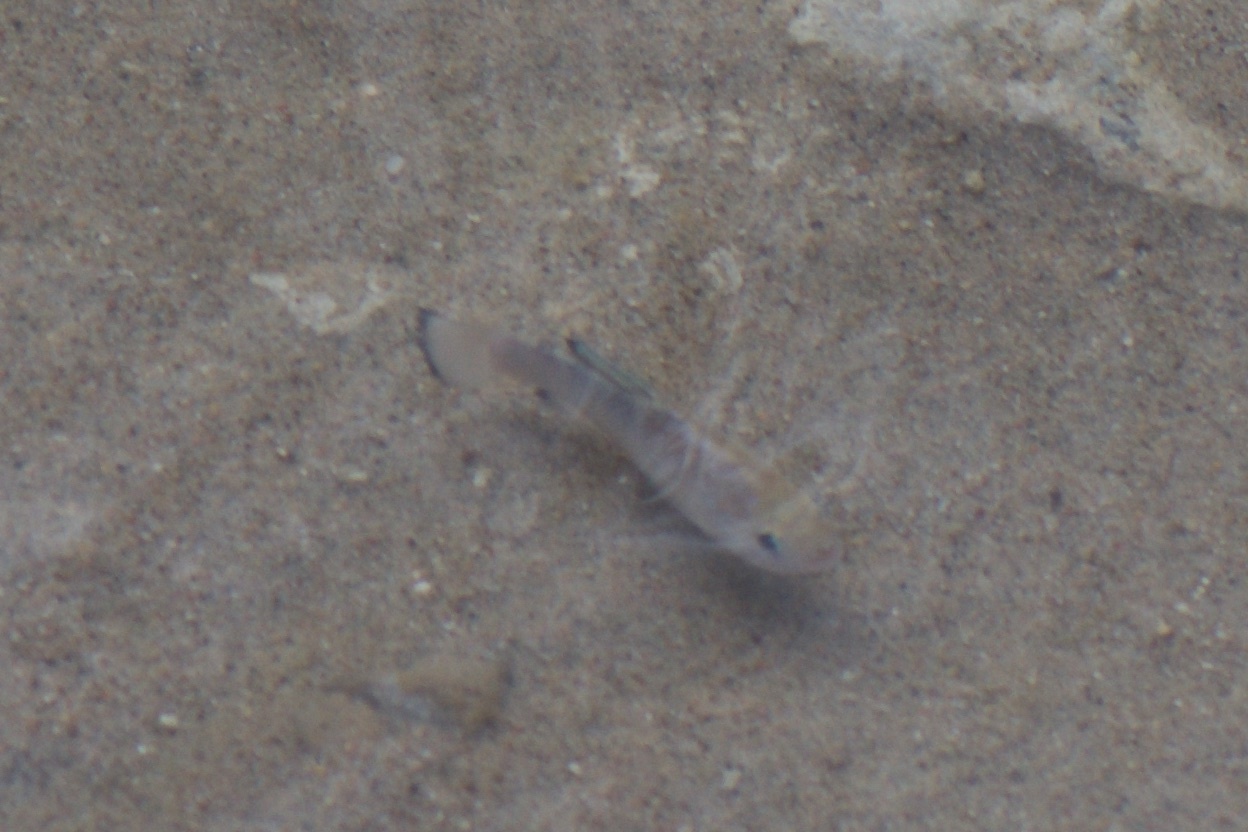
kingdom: Animalia
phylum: Chordata
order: Cyprinodontiformes
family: Cyprinodontidae
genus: Cyprinodon
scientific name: Cyprinodon salinus
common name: Cottonball marsh pupfish
